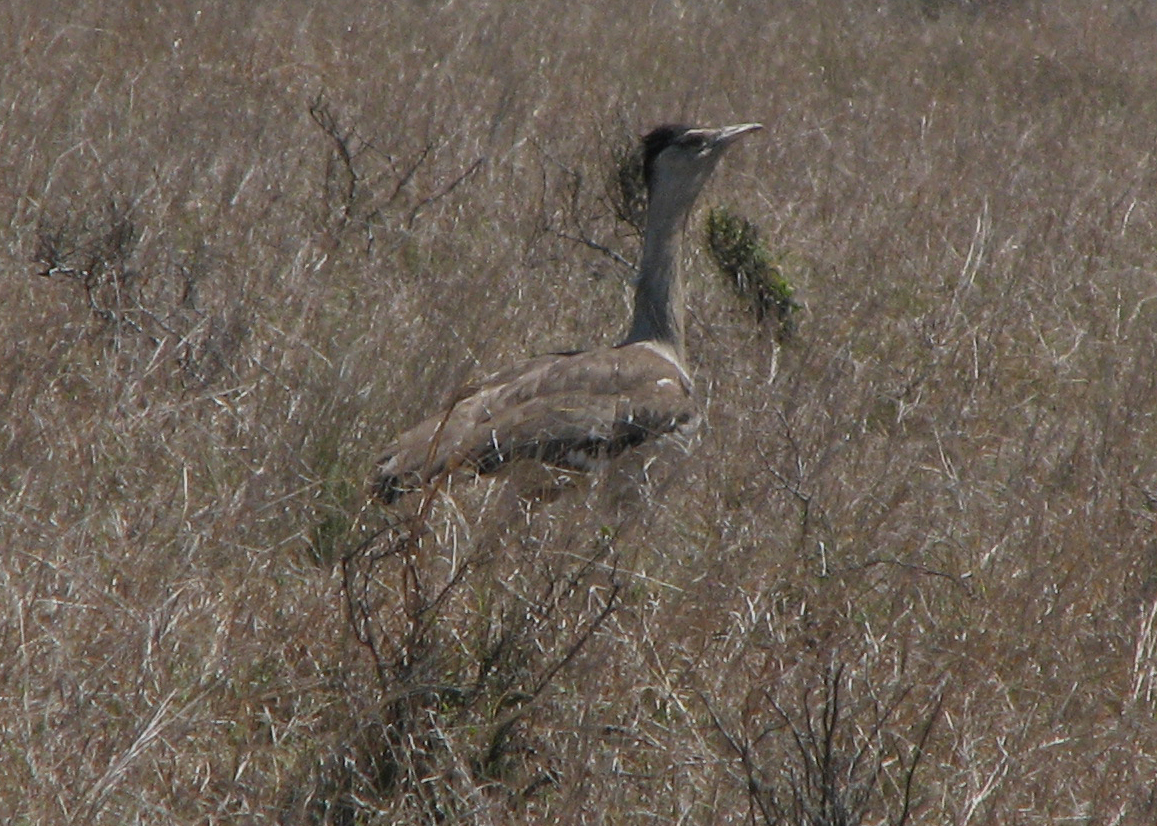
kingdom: Animalia
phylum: Chordata
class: Aves
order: Otidiformes
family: Otididae
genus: Ardeotis
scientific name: Ardeotis australis
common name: Australian bustard
